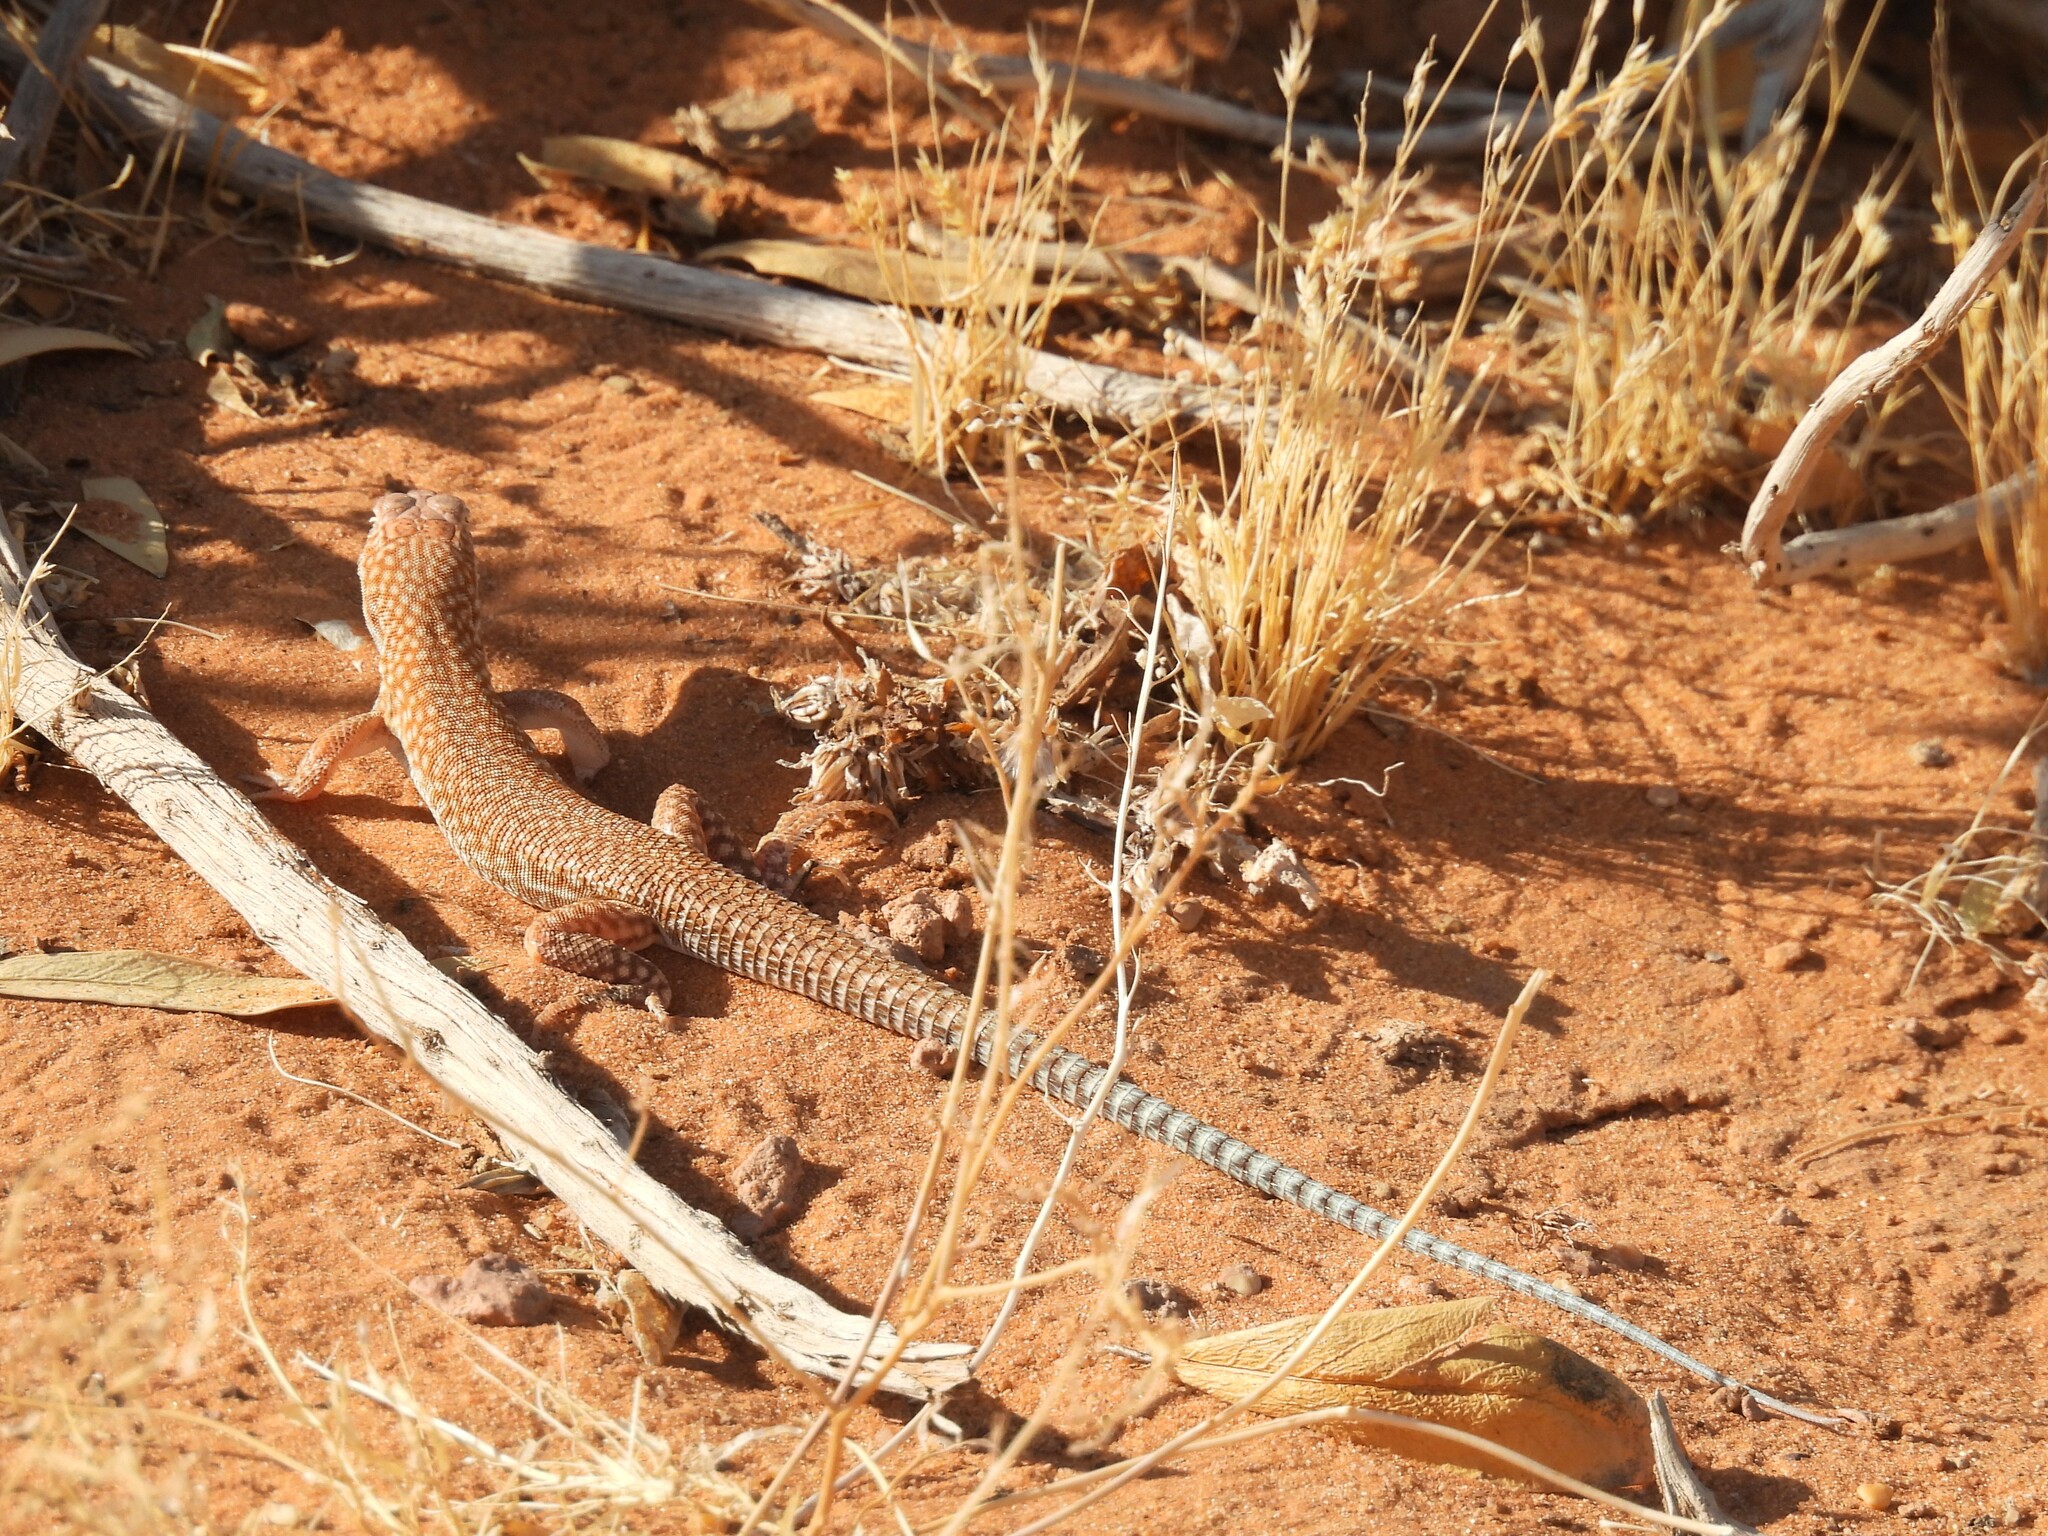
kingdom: Animalia
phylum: Chordata
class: Squamata
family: Lacertidae
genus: Acanthodactylus
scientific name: Acanthodactylus schmidti
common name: Schmidt's fringe-toed lizard
